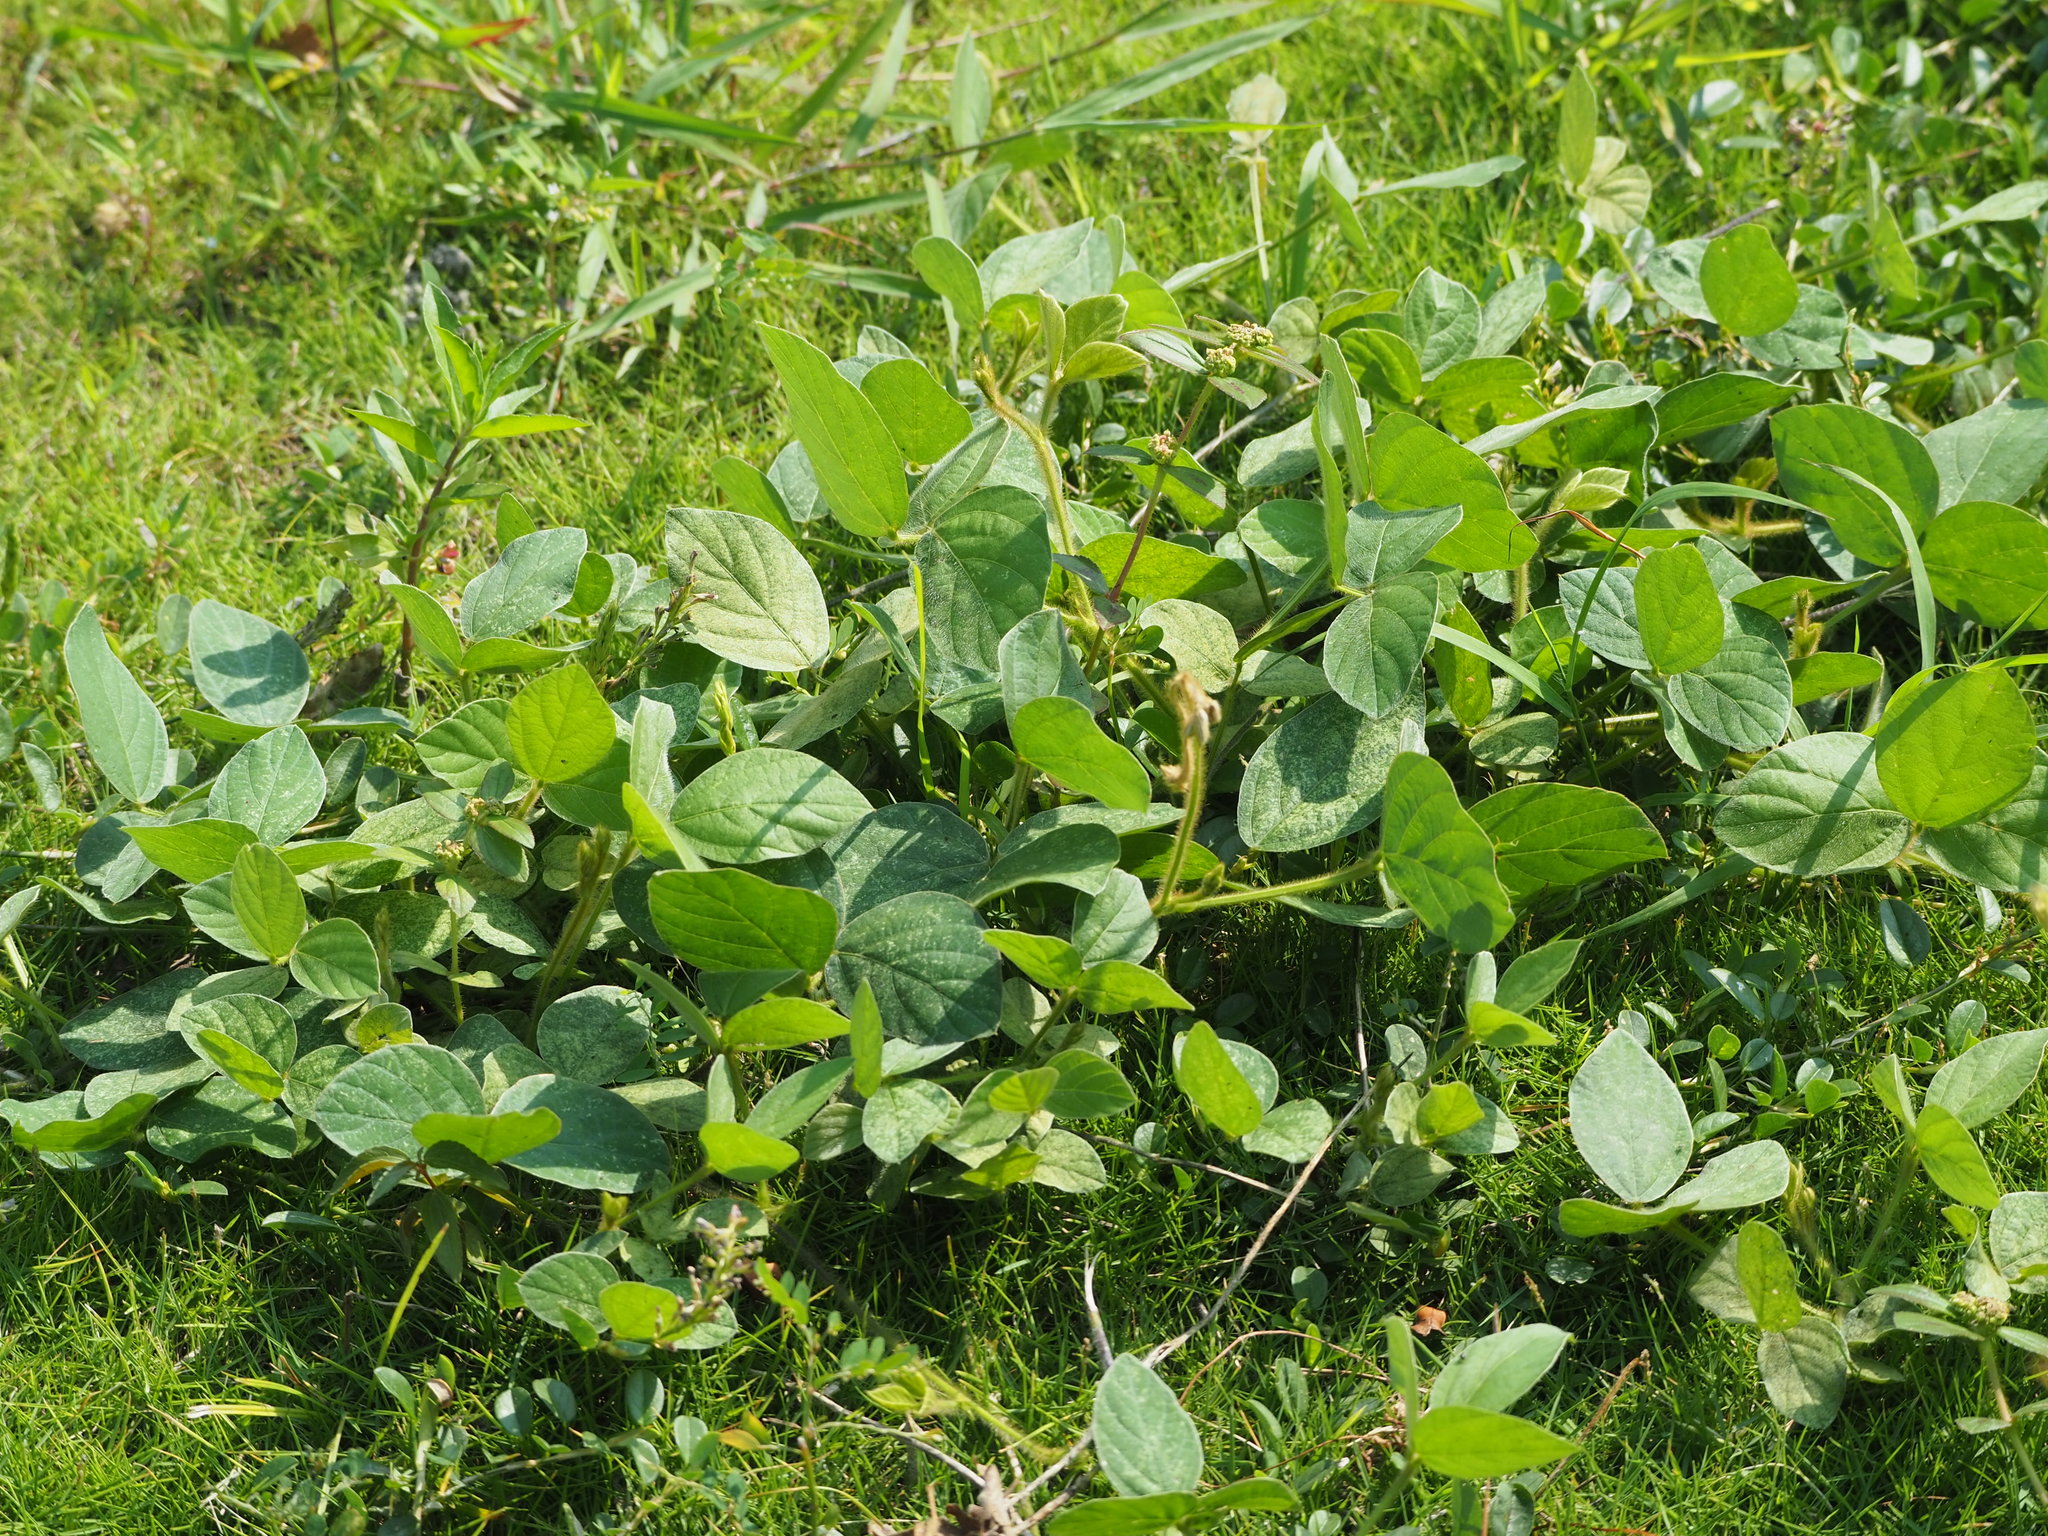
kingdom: Plantae
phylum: Tracheophyta
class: Magnoliopsida
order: Fabales
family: Fabaceae
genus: Calopogonium
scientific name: Calopogonium mucunoides
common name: Calopo
